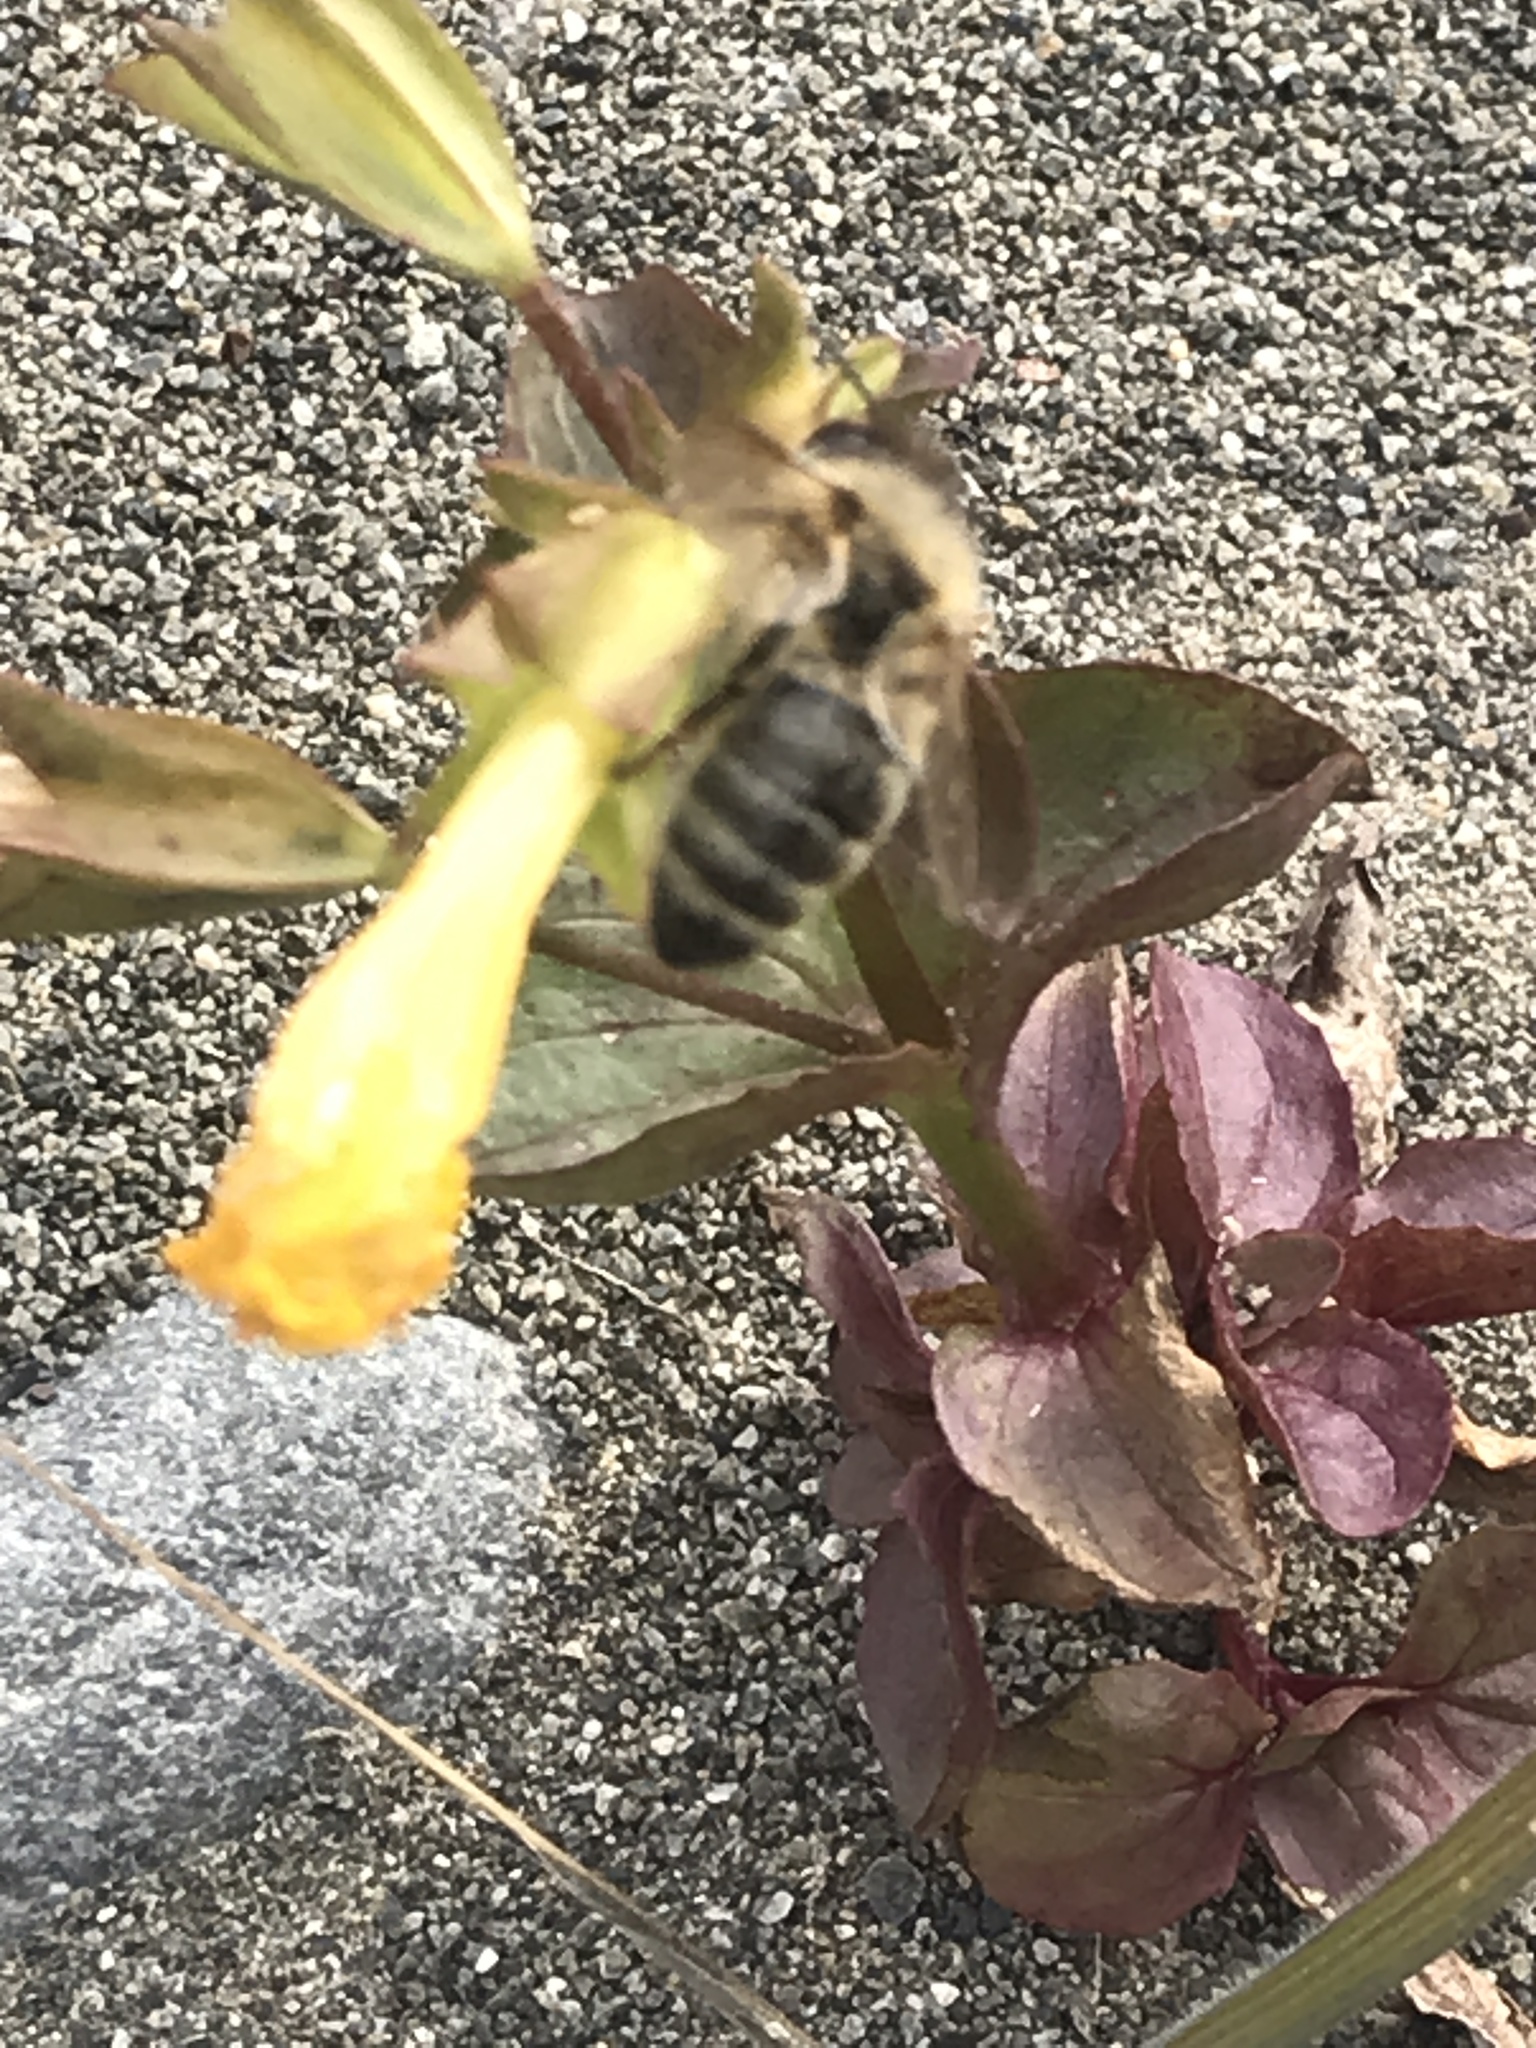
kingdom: Plantae
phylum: Tracheophyta
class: Magnoliopsida
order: Lamiales
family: Phrymaceae
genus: Erythranthe
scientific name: Erythranthe guttata
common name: Monkeyflower
